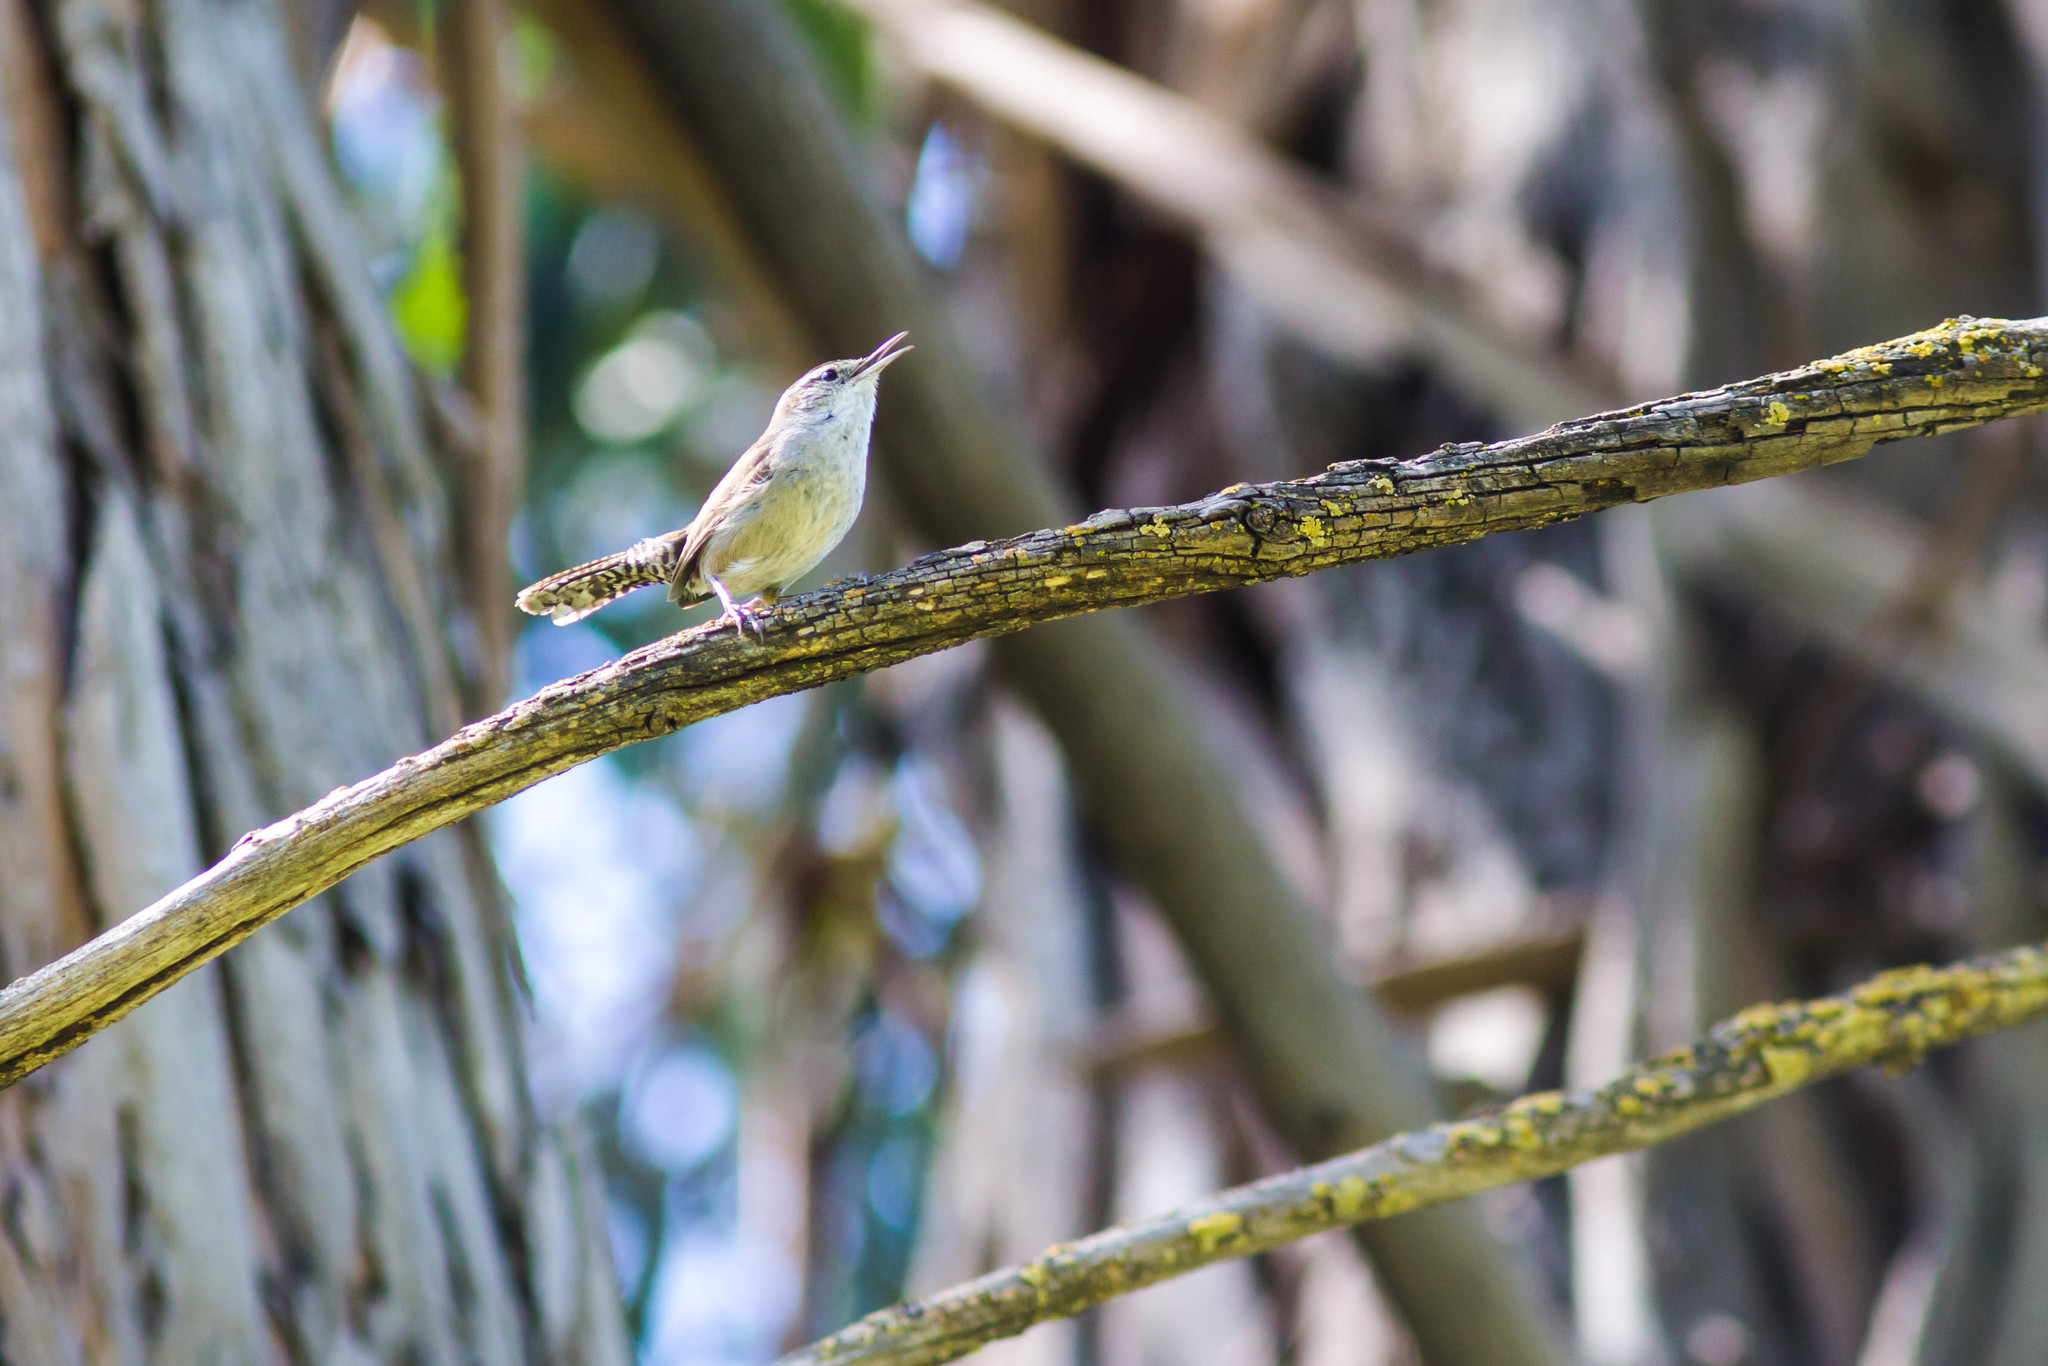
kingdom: Animalia
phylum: Chordata
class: Aves
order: Passeriformes
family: Troglodytidae
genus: Thryomanes
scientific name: Thryomanes bewickii
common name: Bewick's wren
